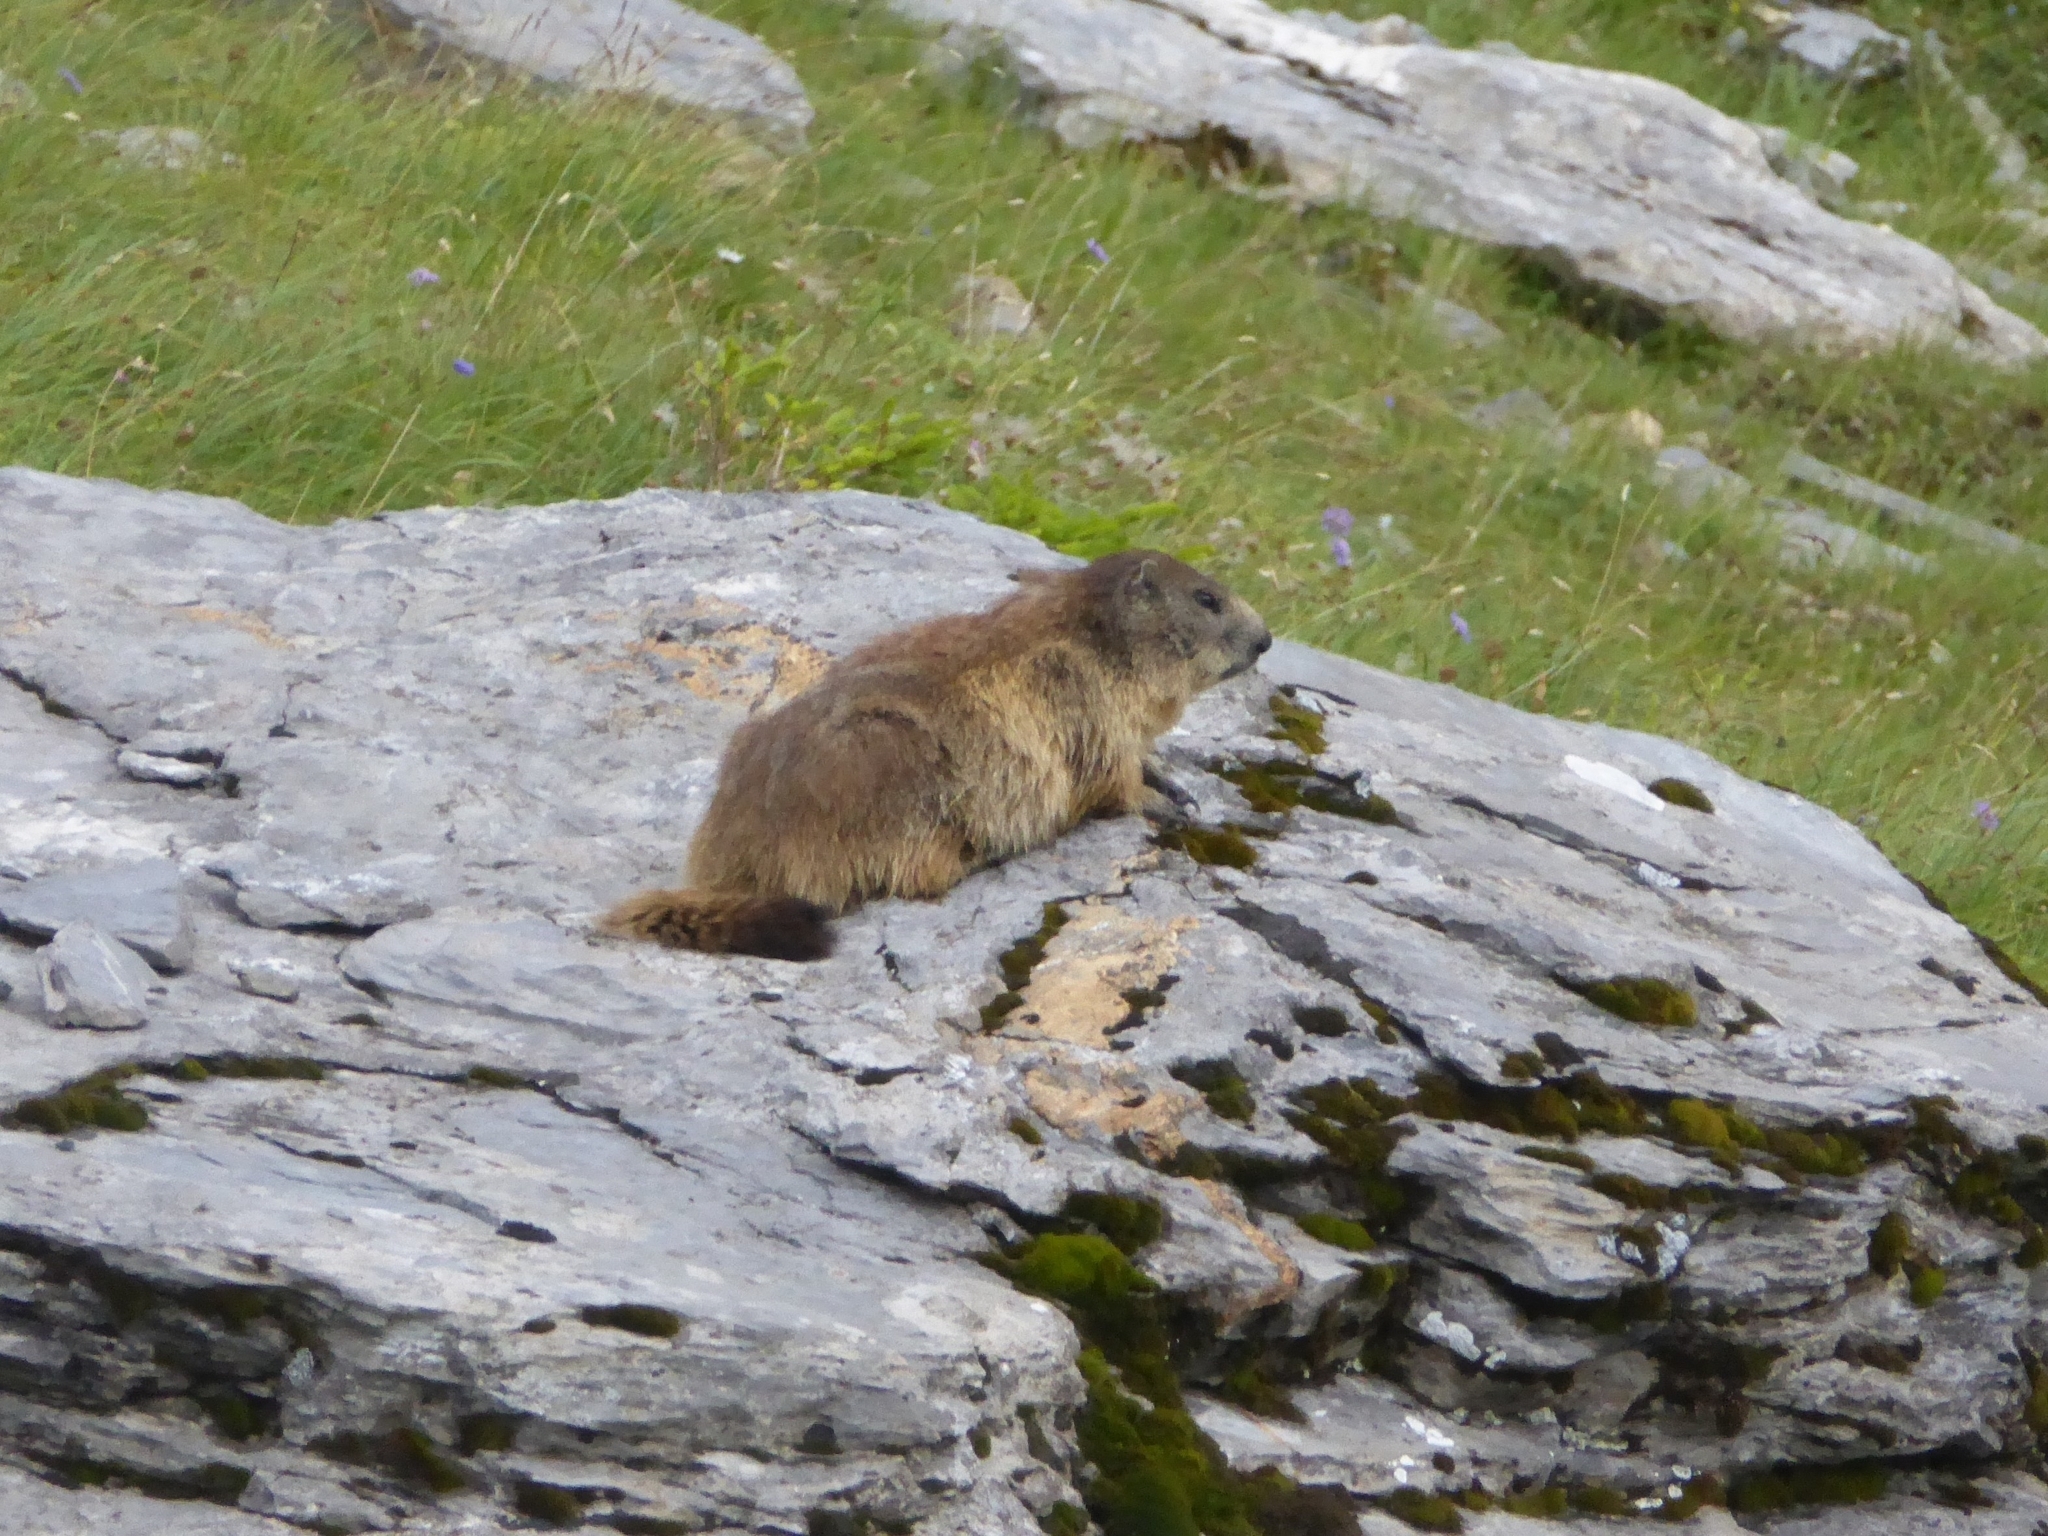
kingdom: Animalia
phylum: Chordata
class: Mammalia
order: Rodentia
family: Sciuridae
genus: Marmota
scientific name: Marmota marmota
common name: Alpine marmot
